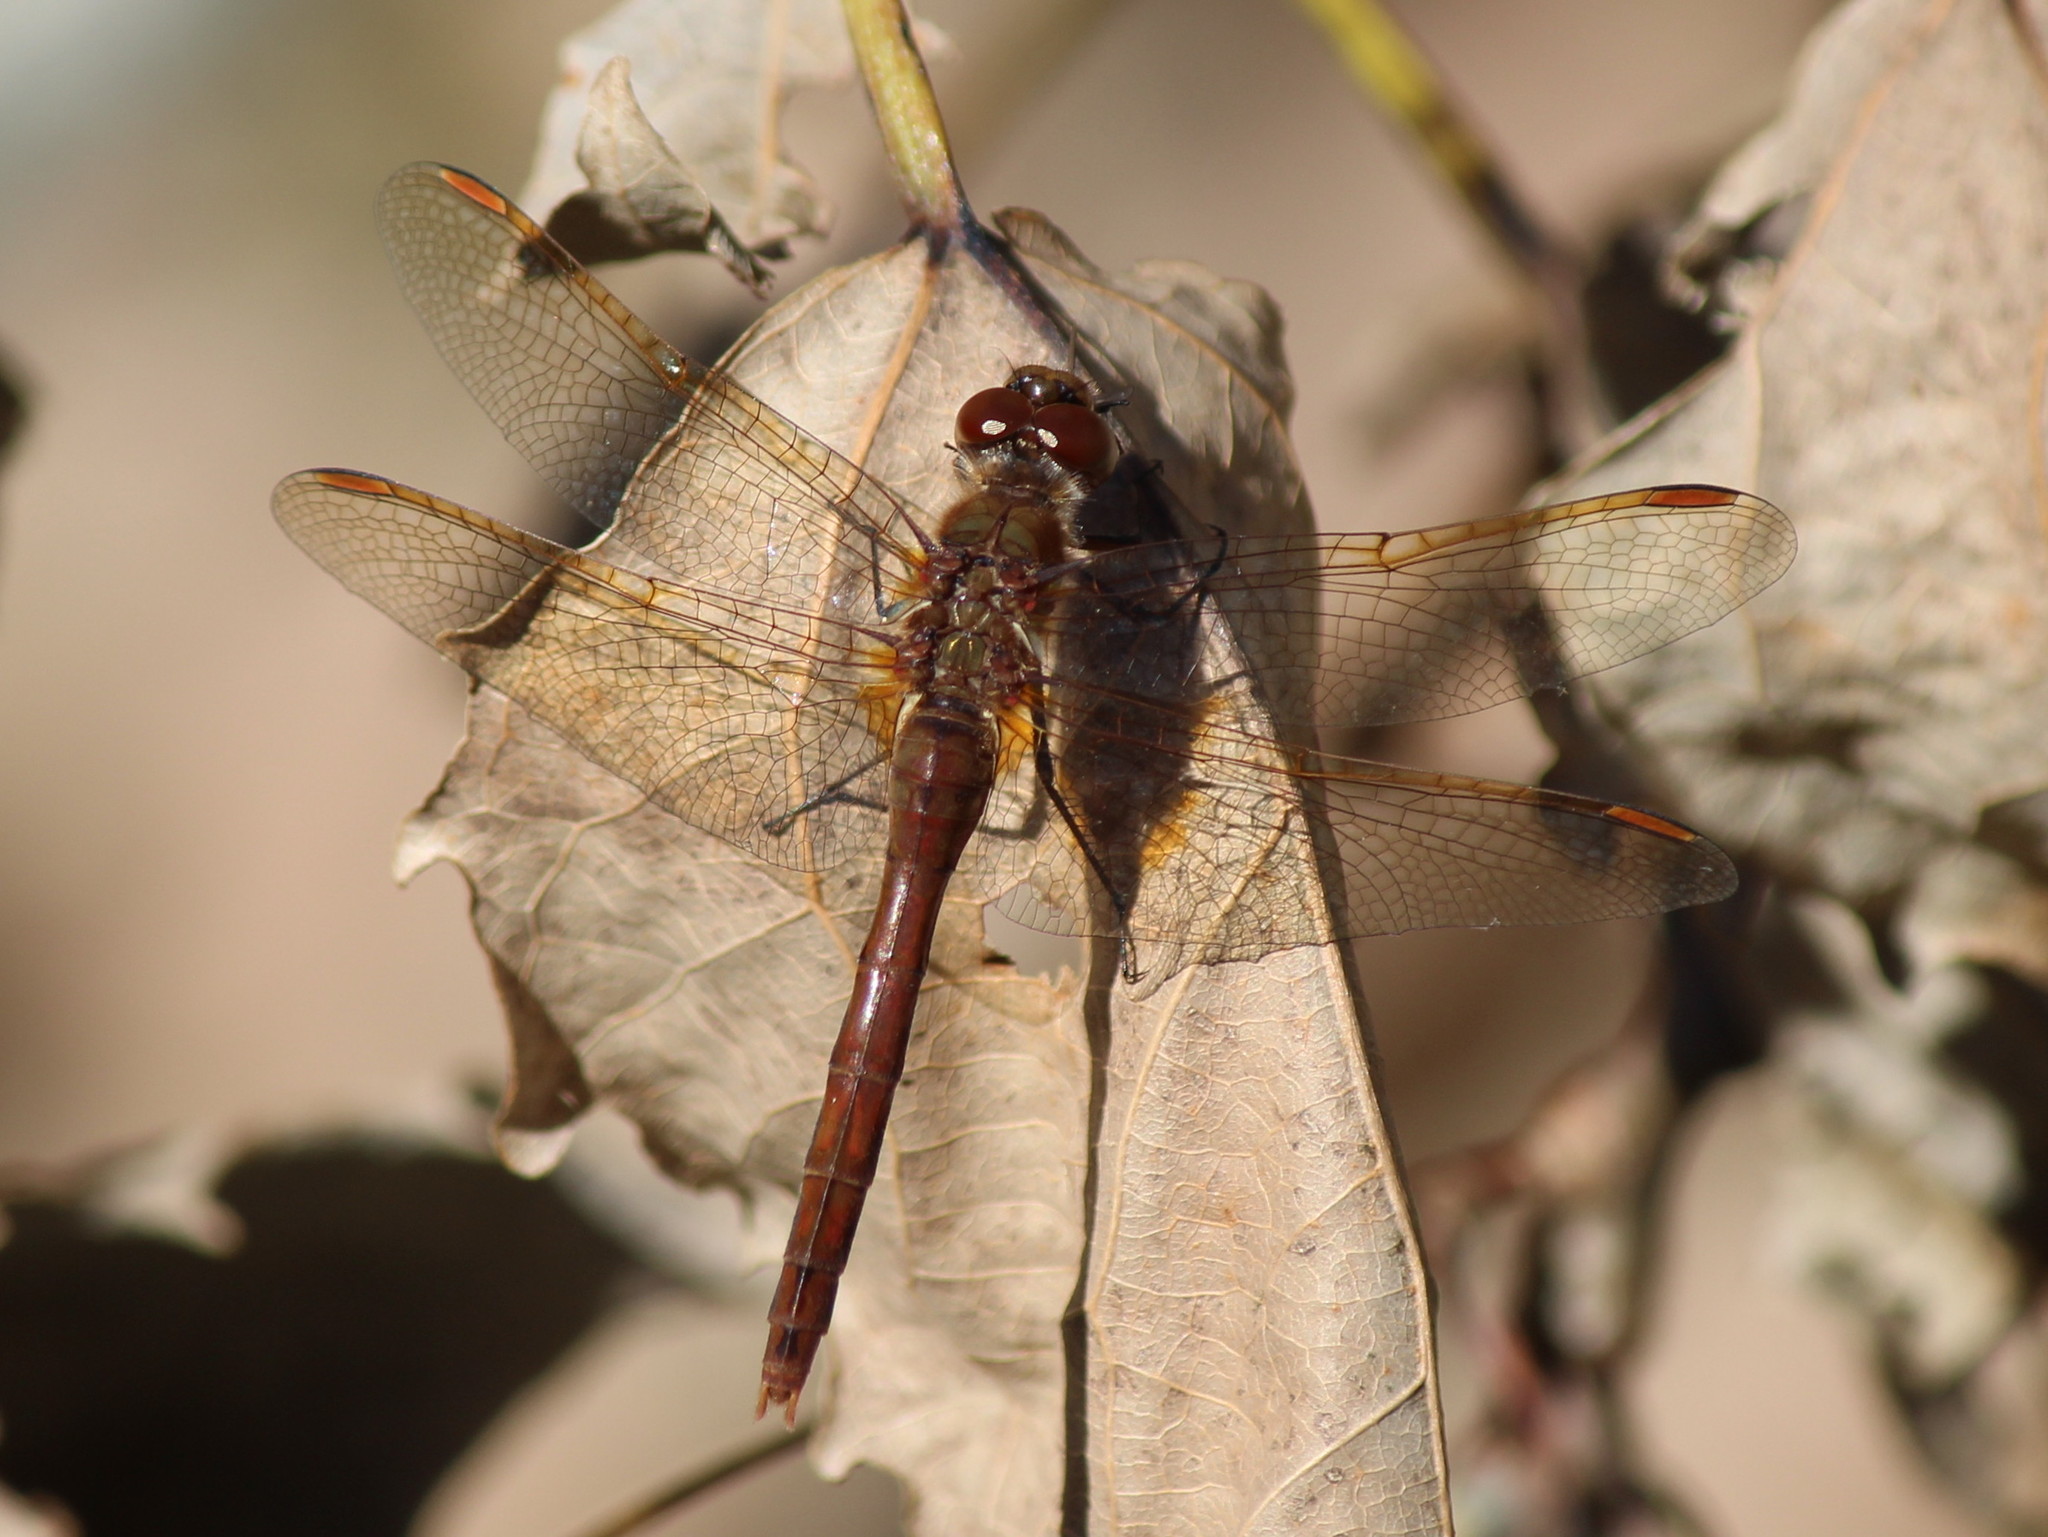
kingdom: Animalia
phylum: Arthropoda
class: Insecta
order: Odonata
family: Libellulidae
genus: Sympetrum
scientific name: Sympetrum costiferum
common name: Saffron-winged meadowhawk
